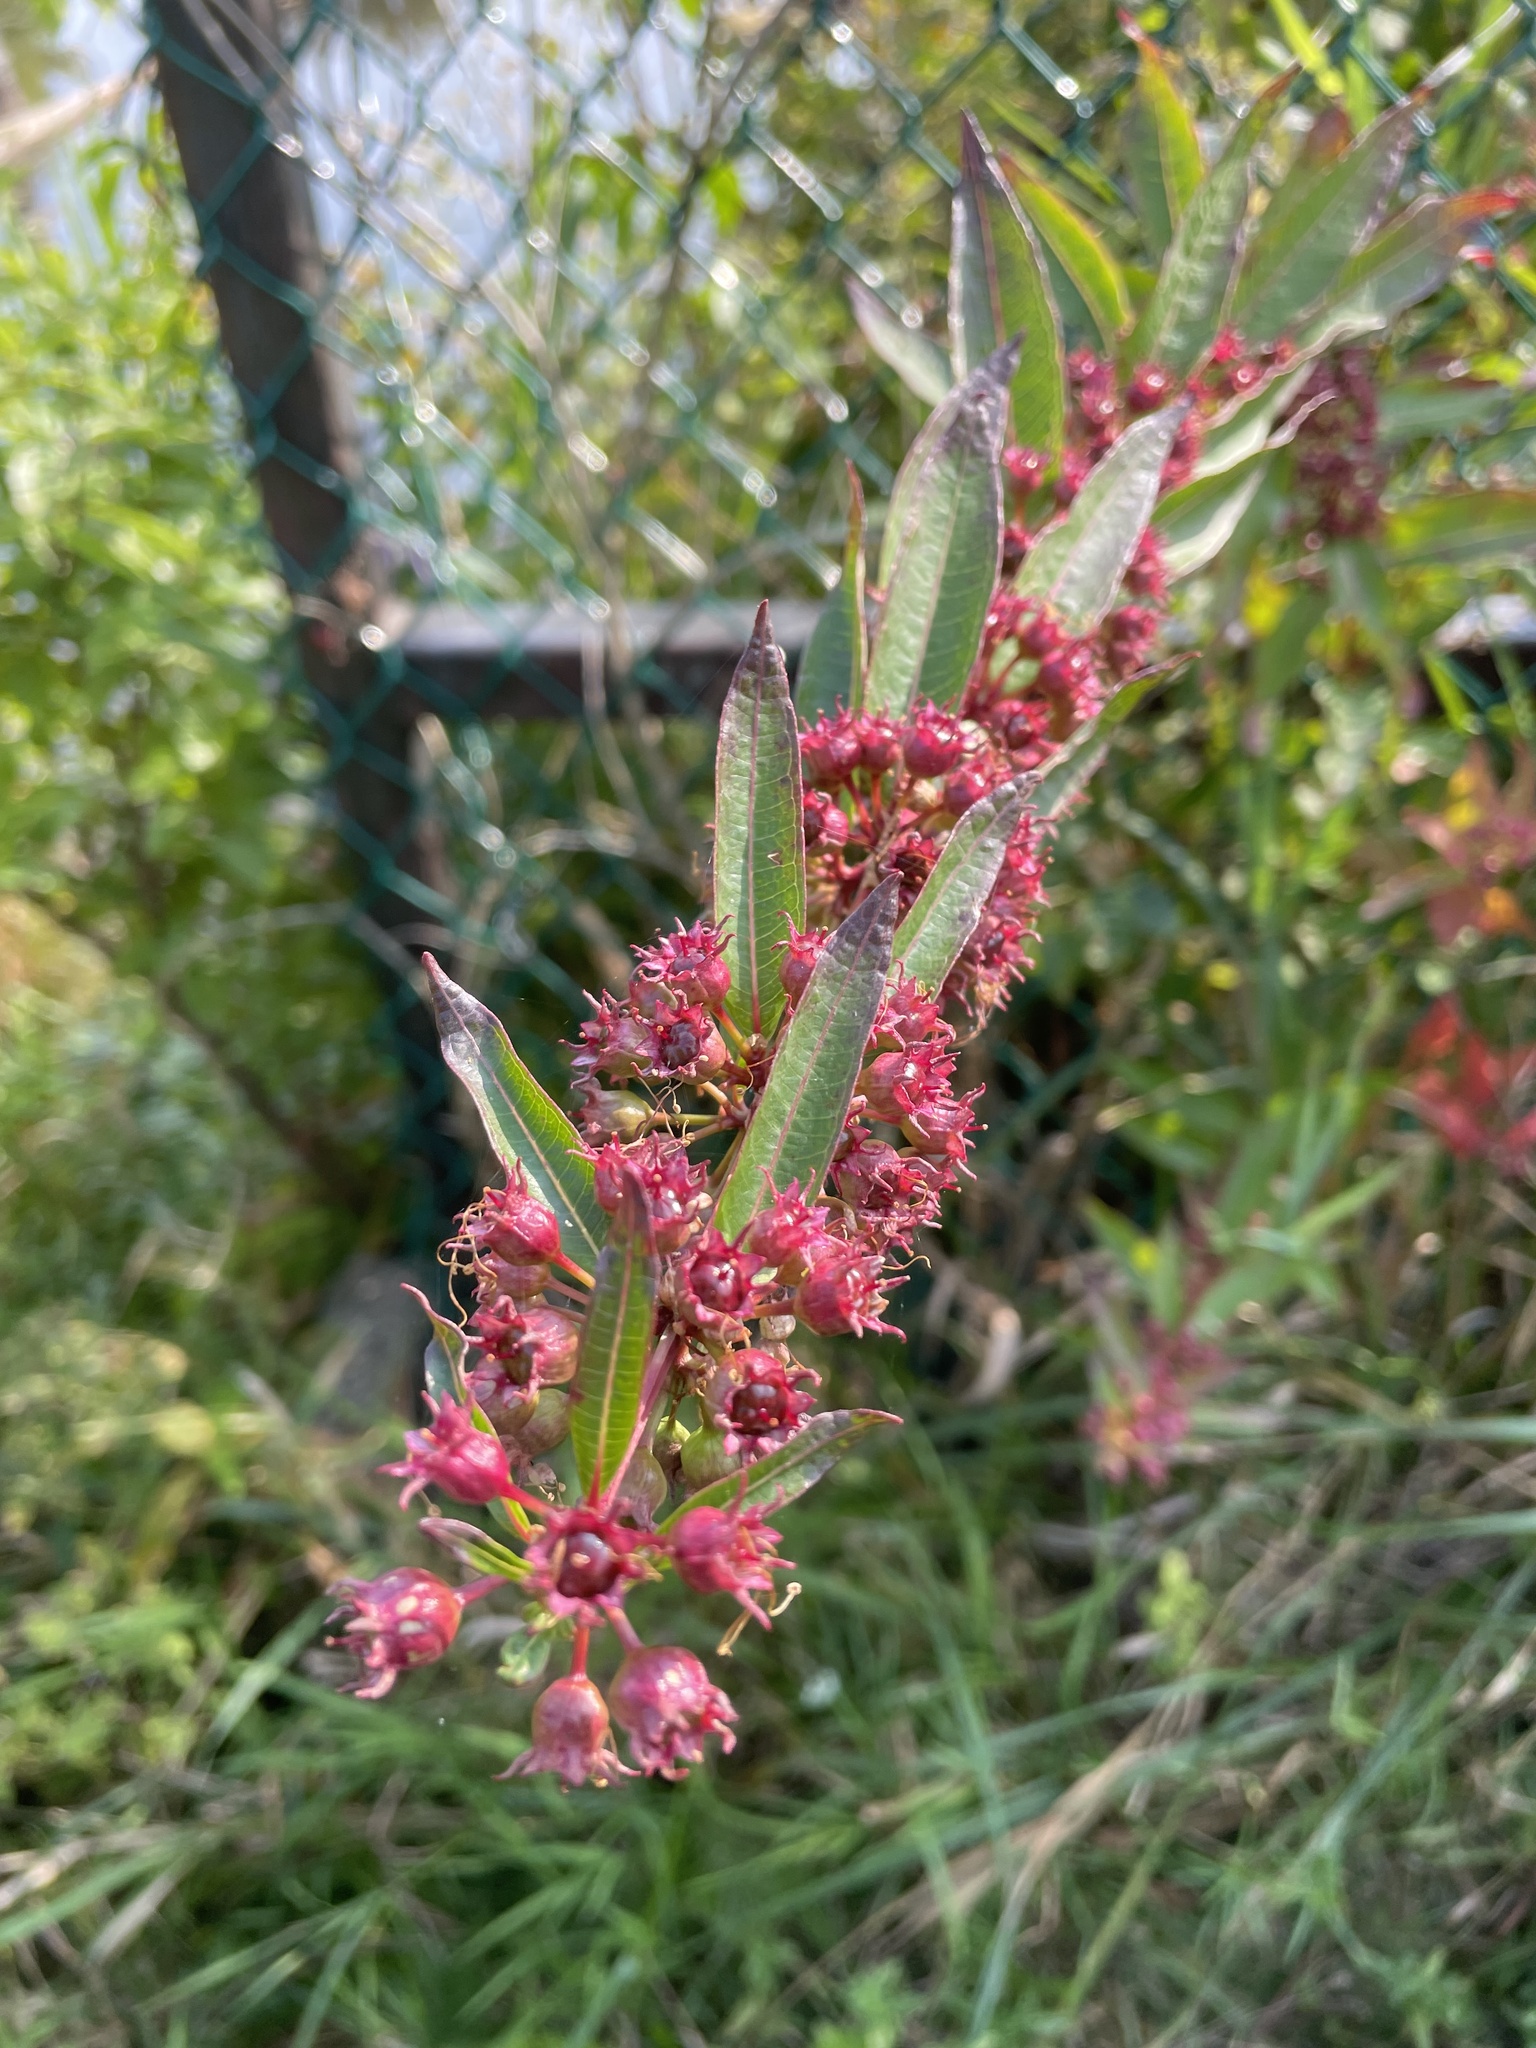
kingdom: Plantae
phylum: Tracheophyta
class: Magnoliopsida
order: Myrtales
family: Lythraceae
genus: Decodon
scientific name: Decodon verticillatus
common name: Hairy swamp loosestrife
